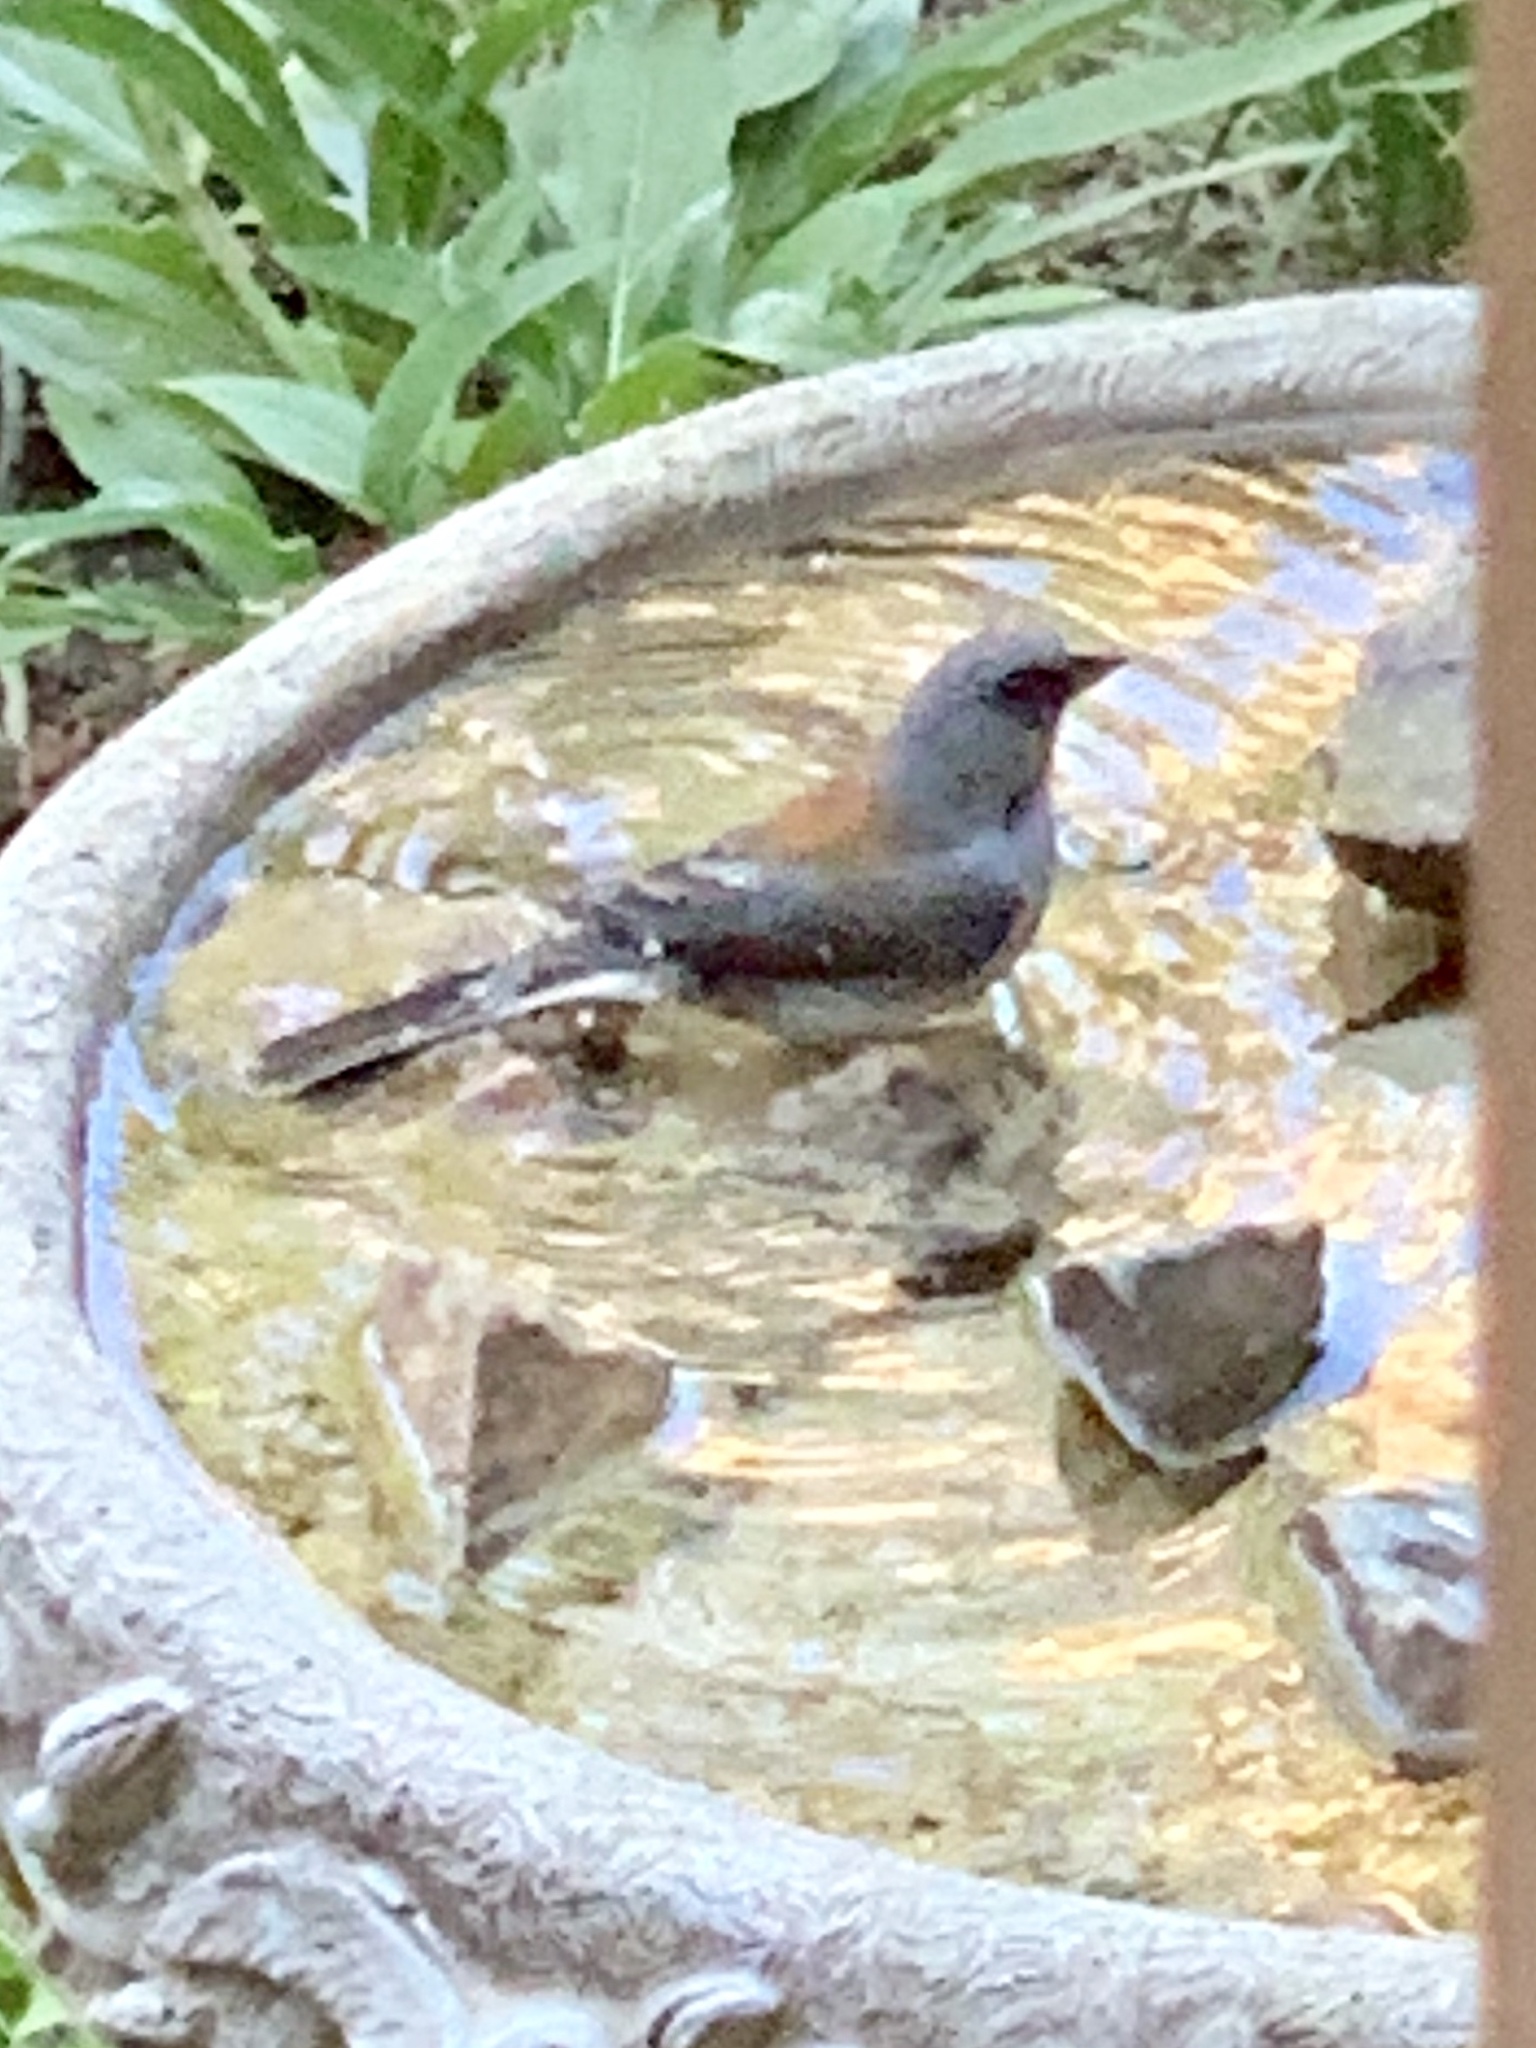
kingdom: Animalia
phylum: Chordata
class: Aves
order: Passeriformes
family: Passerellidae
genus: Junco
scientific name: Junco hyemalis
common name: Dark-eyed junco
